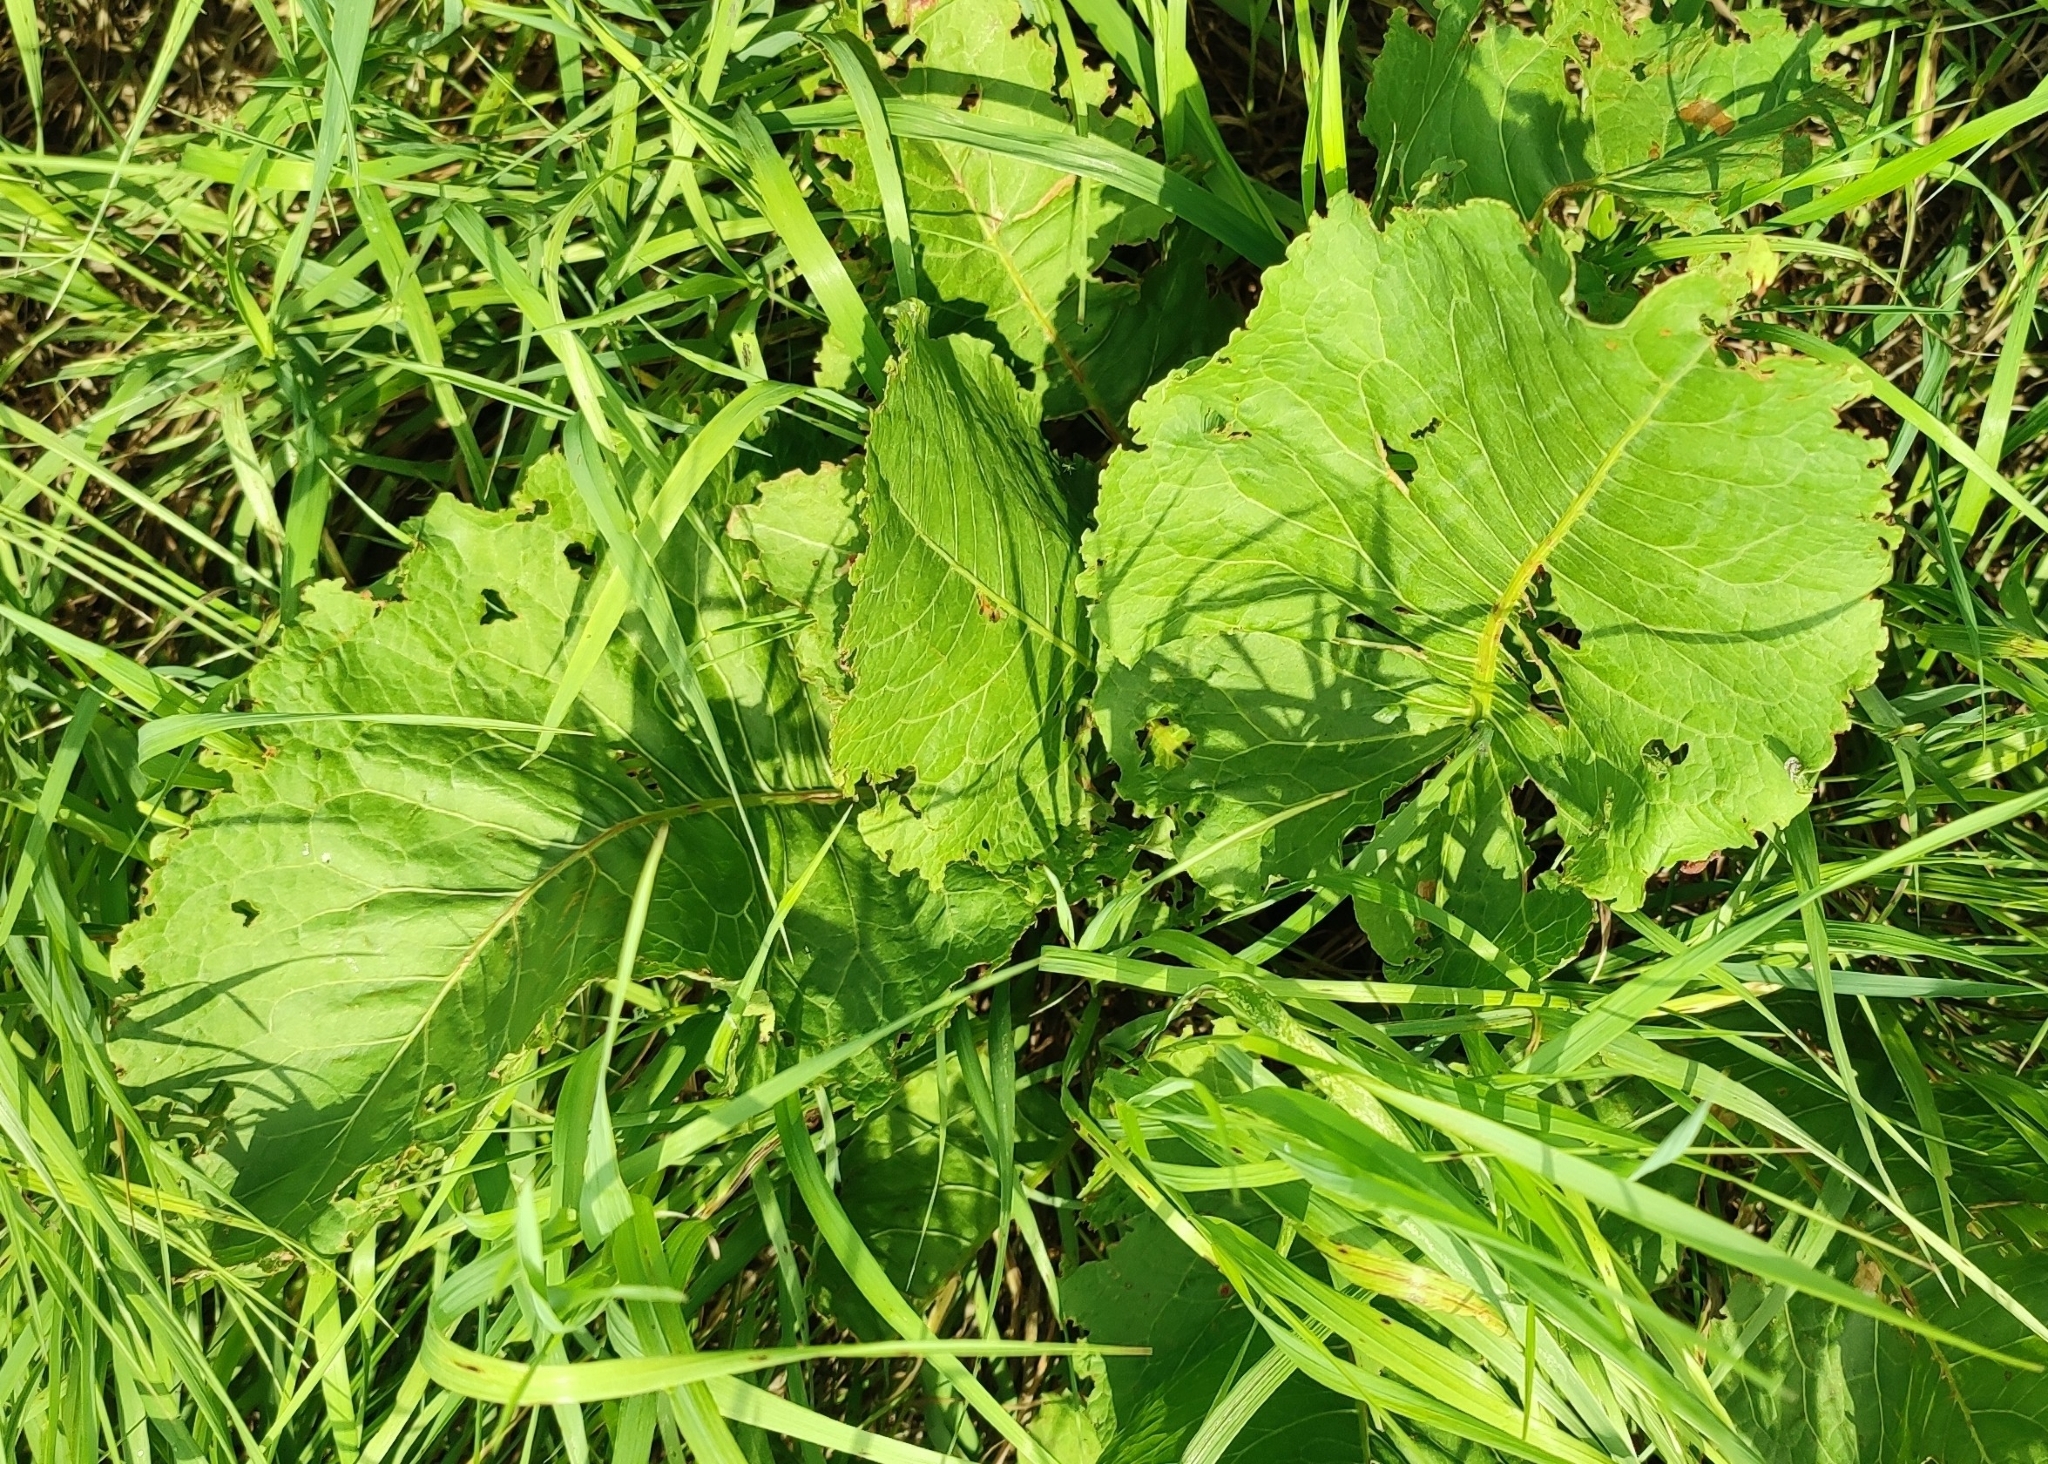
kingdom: Plantae
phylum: Tracheophyta
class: Magnoliopsida
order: Caryophyllales
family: Polygonaceae
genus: Rumex
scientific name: Rumex confertus
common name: Russian dock
